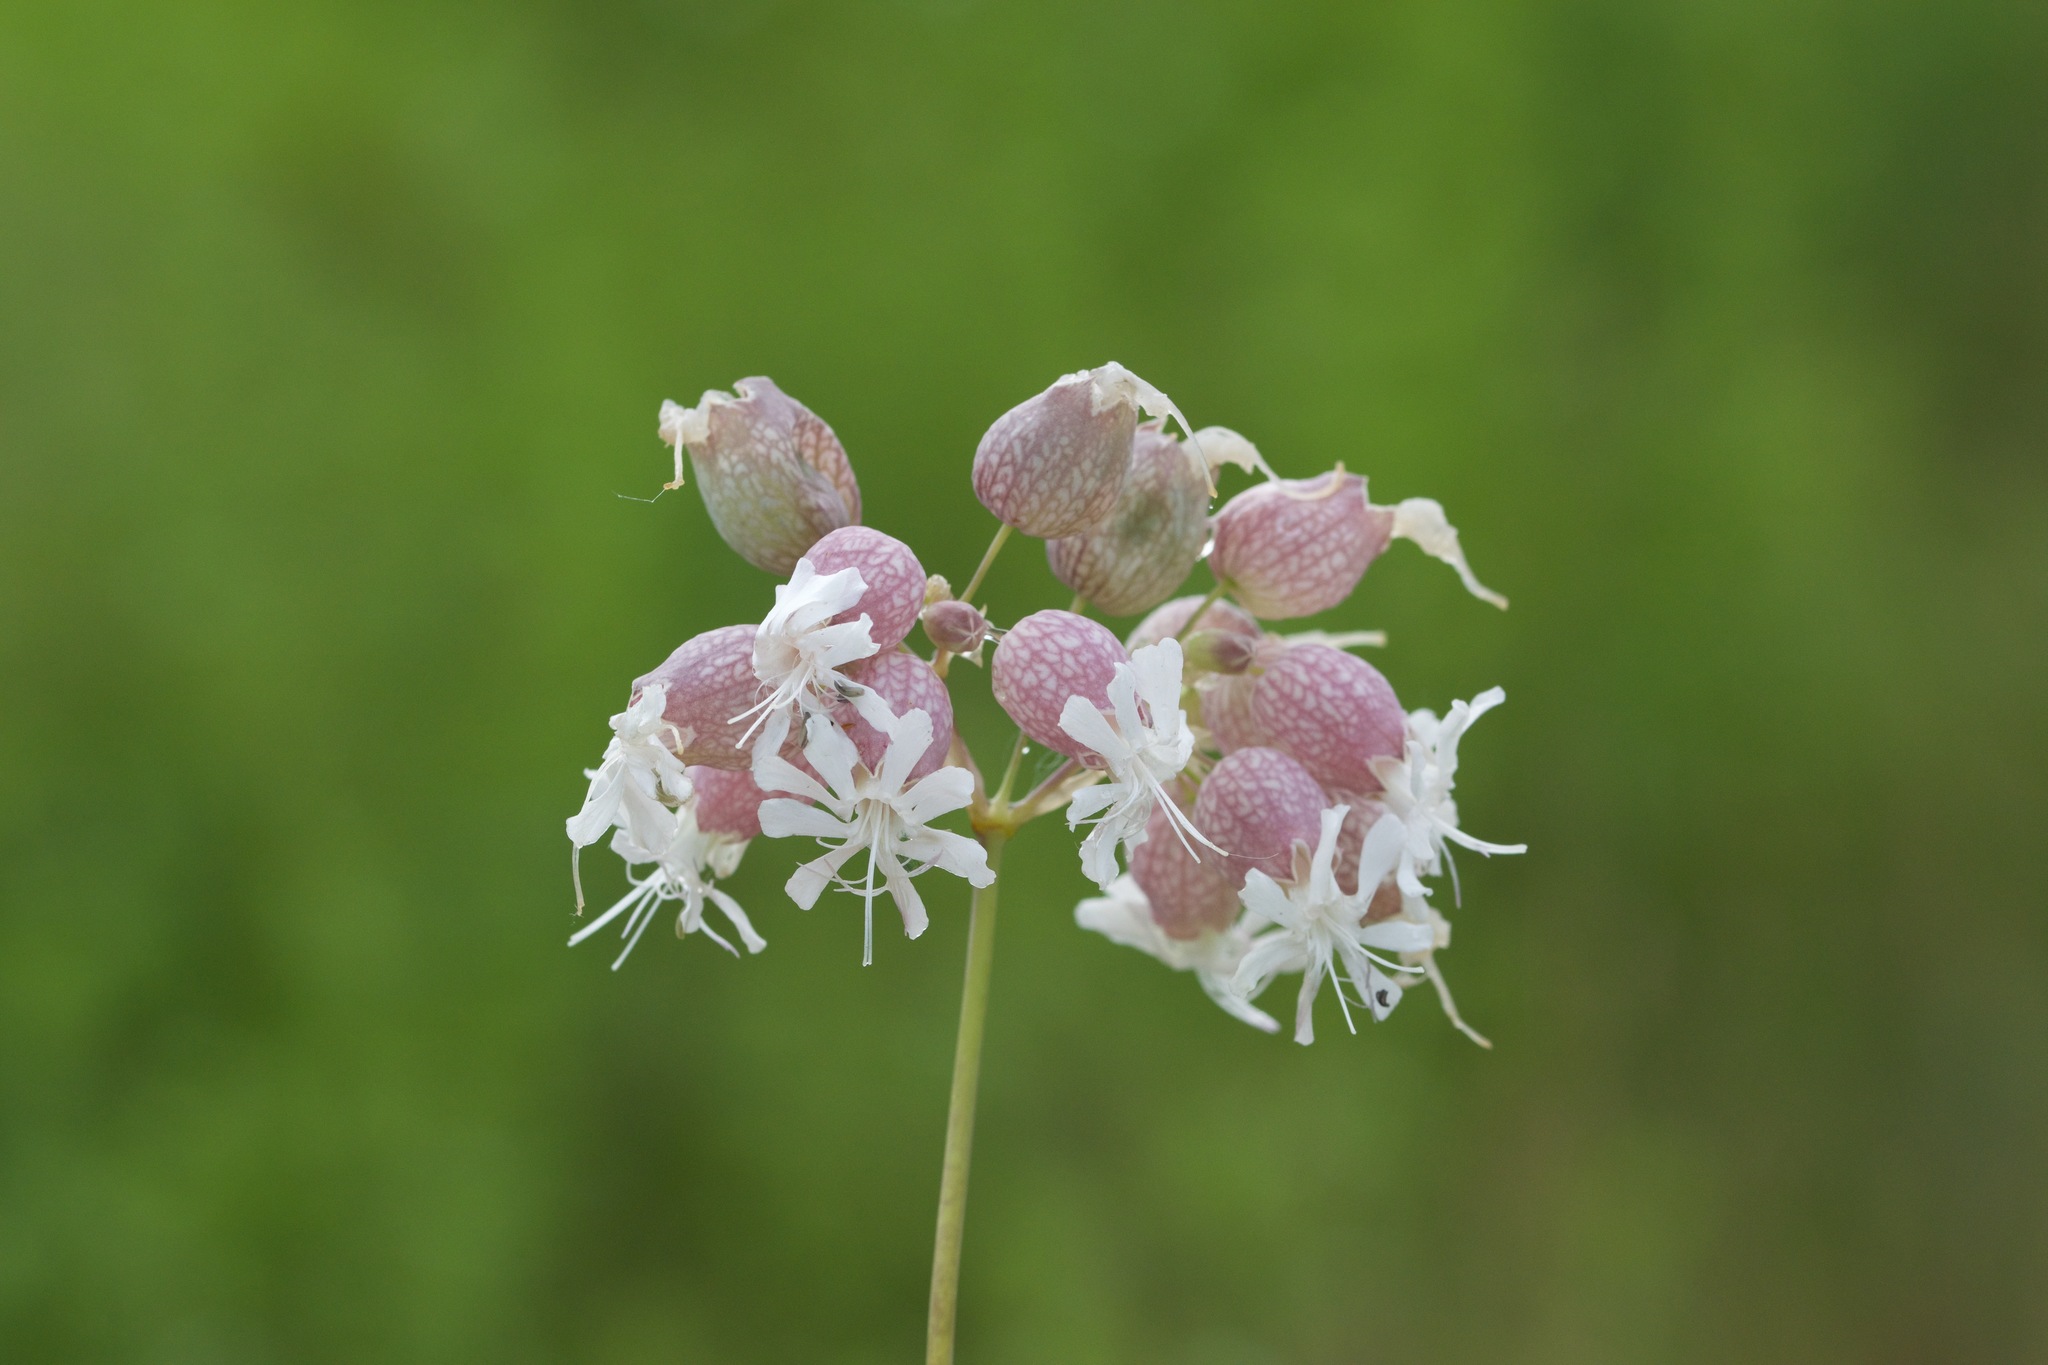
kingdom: Plantae
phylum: Tracheophyta
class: Magnoliopsida
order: Caryophyllales
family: Caryophyllaceae
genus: Silene
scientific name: Silene vulgaris
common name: Bladder campion
